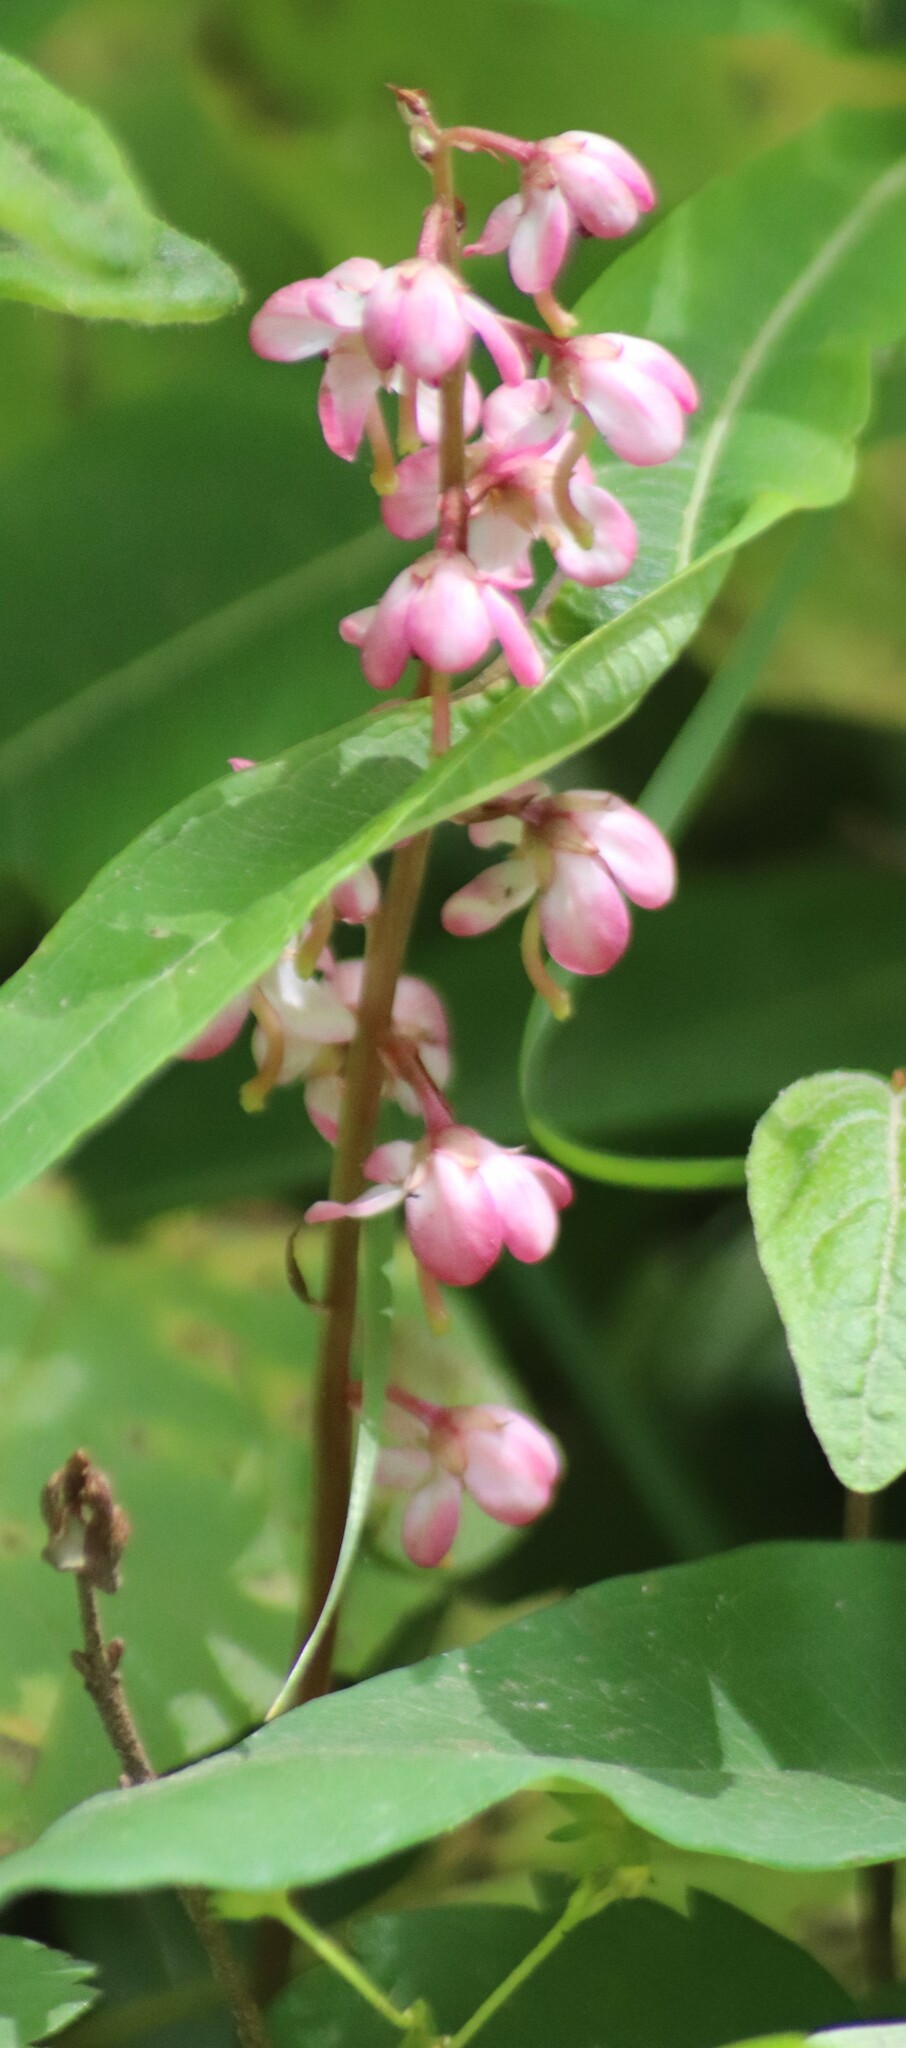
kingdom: Plantae
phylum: Tracheophyta
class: Magnoliopsida
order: Ericales
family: Ericaceae
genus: Pyrola
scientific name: Pyrola asarifolia
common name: Bog wintergreen
